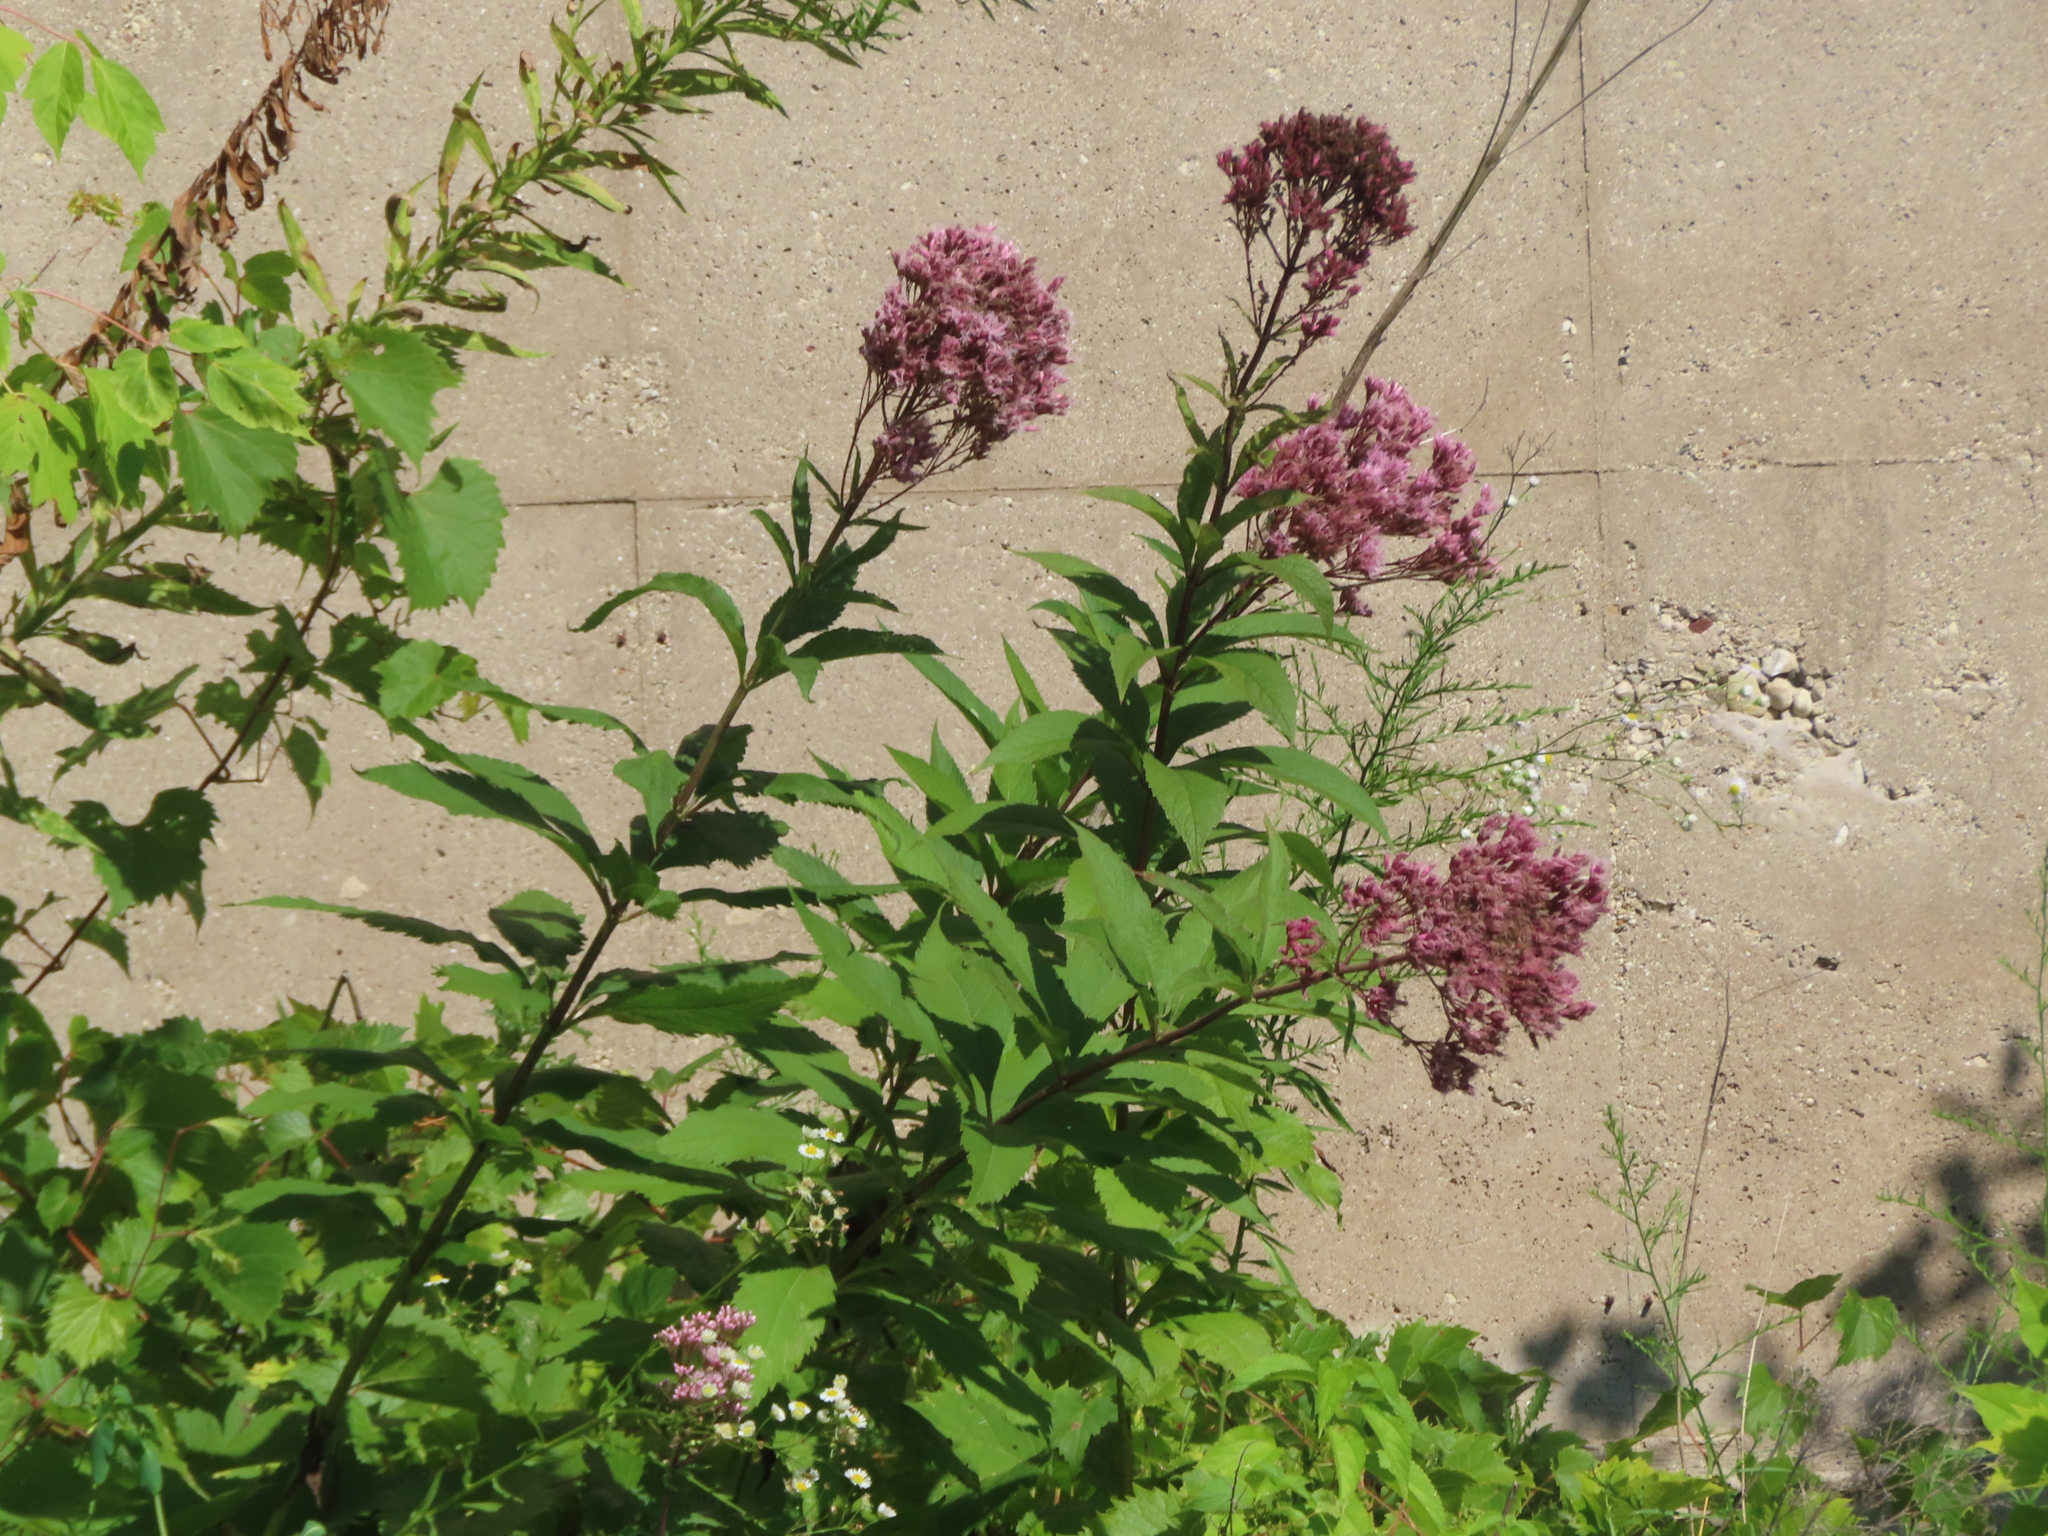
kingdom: Plantae
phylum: Tracheophyta
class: Magnoliopsida
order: Asterales
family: Asteraceae
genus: Eutrochium
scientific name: Eutrochium maculatum
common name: Spotted joe pye weed
